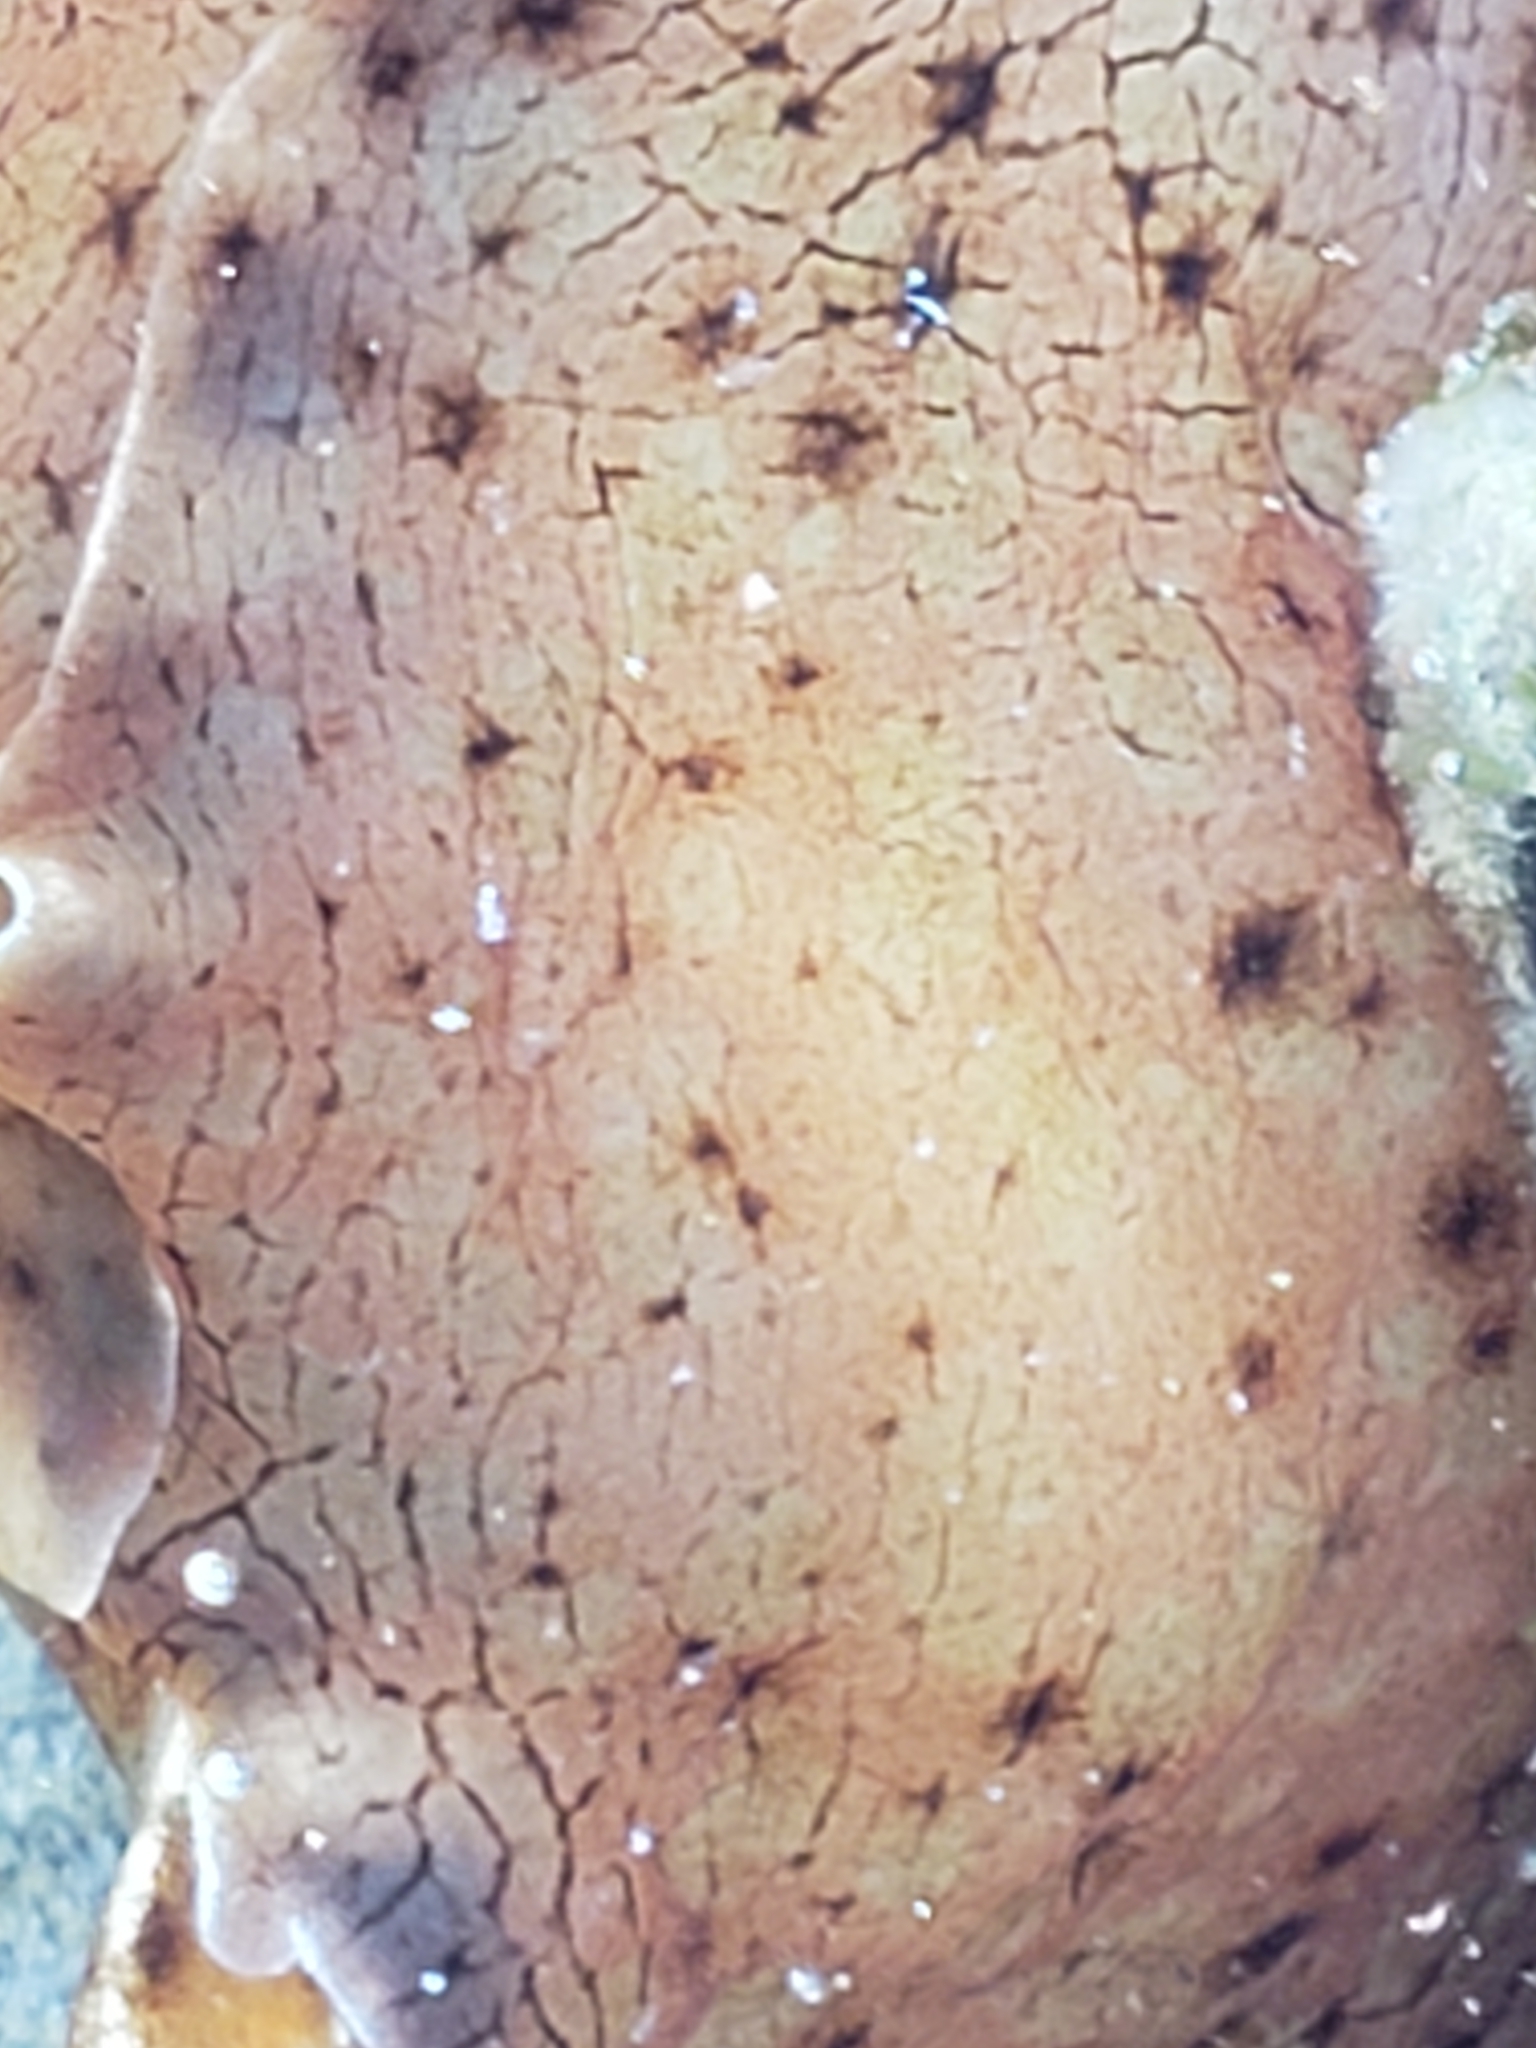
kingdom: Animalia
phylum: Mollusca
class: Gastropoda
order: Aplysiida
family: Aplysiidae
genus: Aplysia
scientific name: Aplysia californica
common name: California seahare
